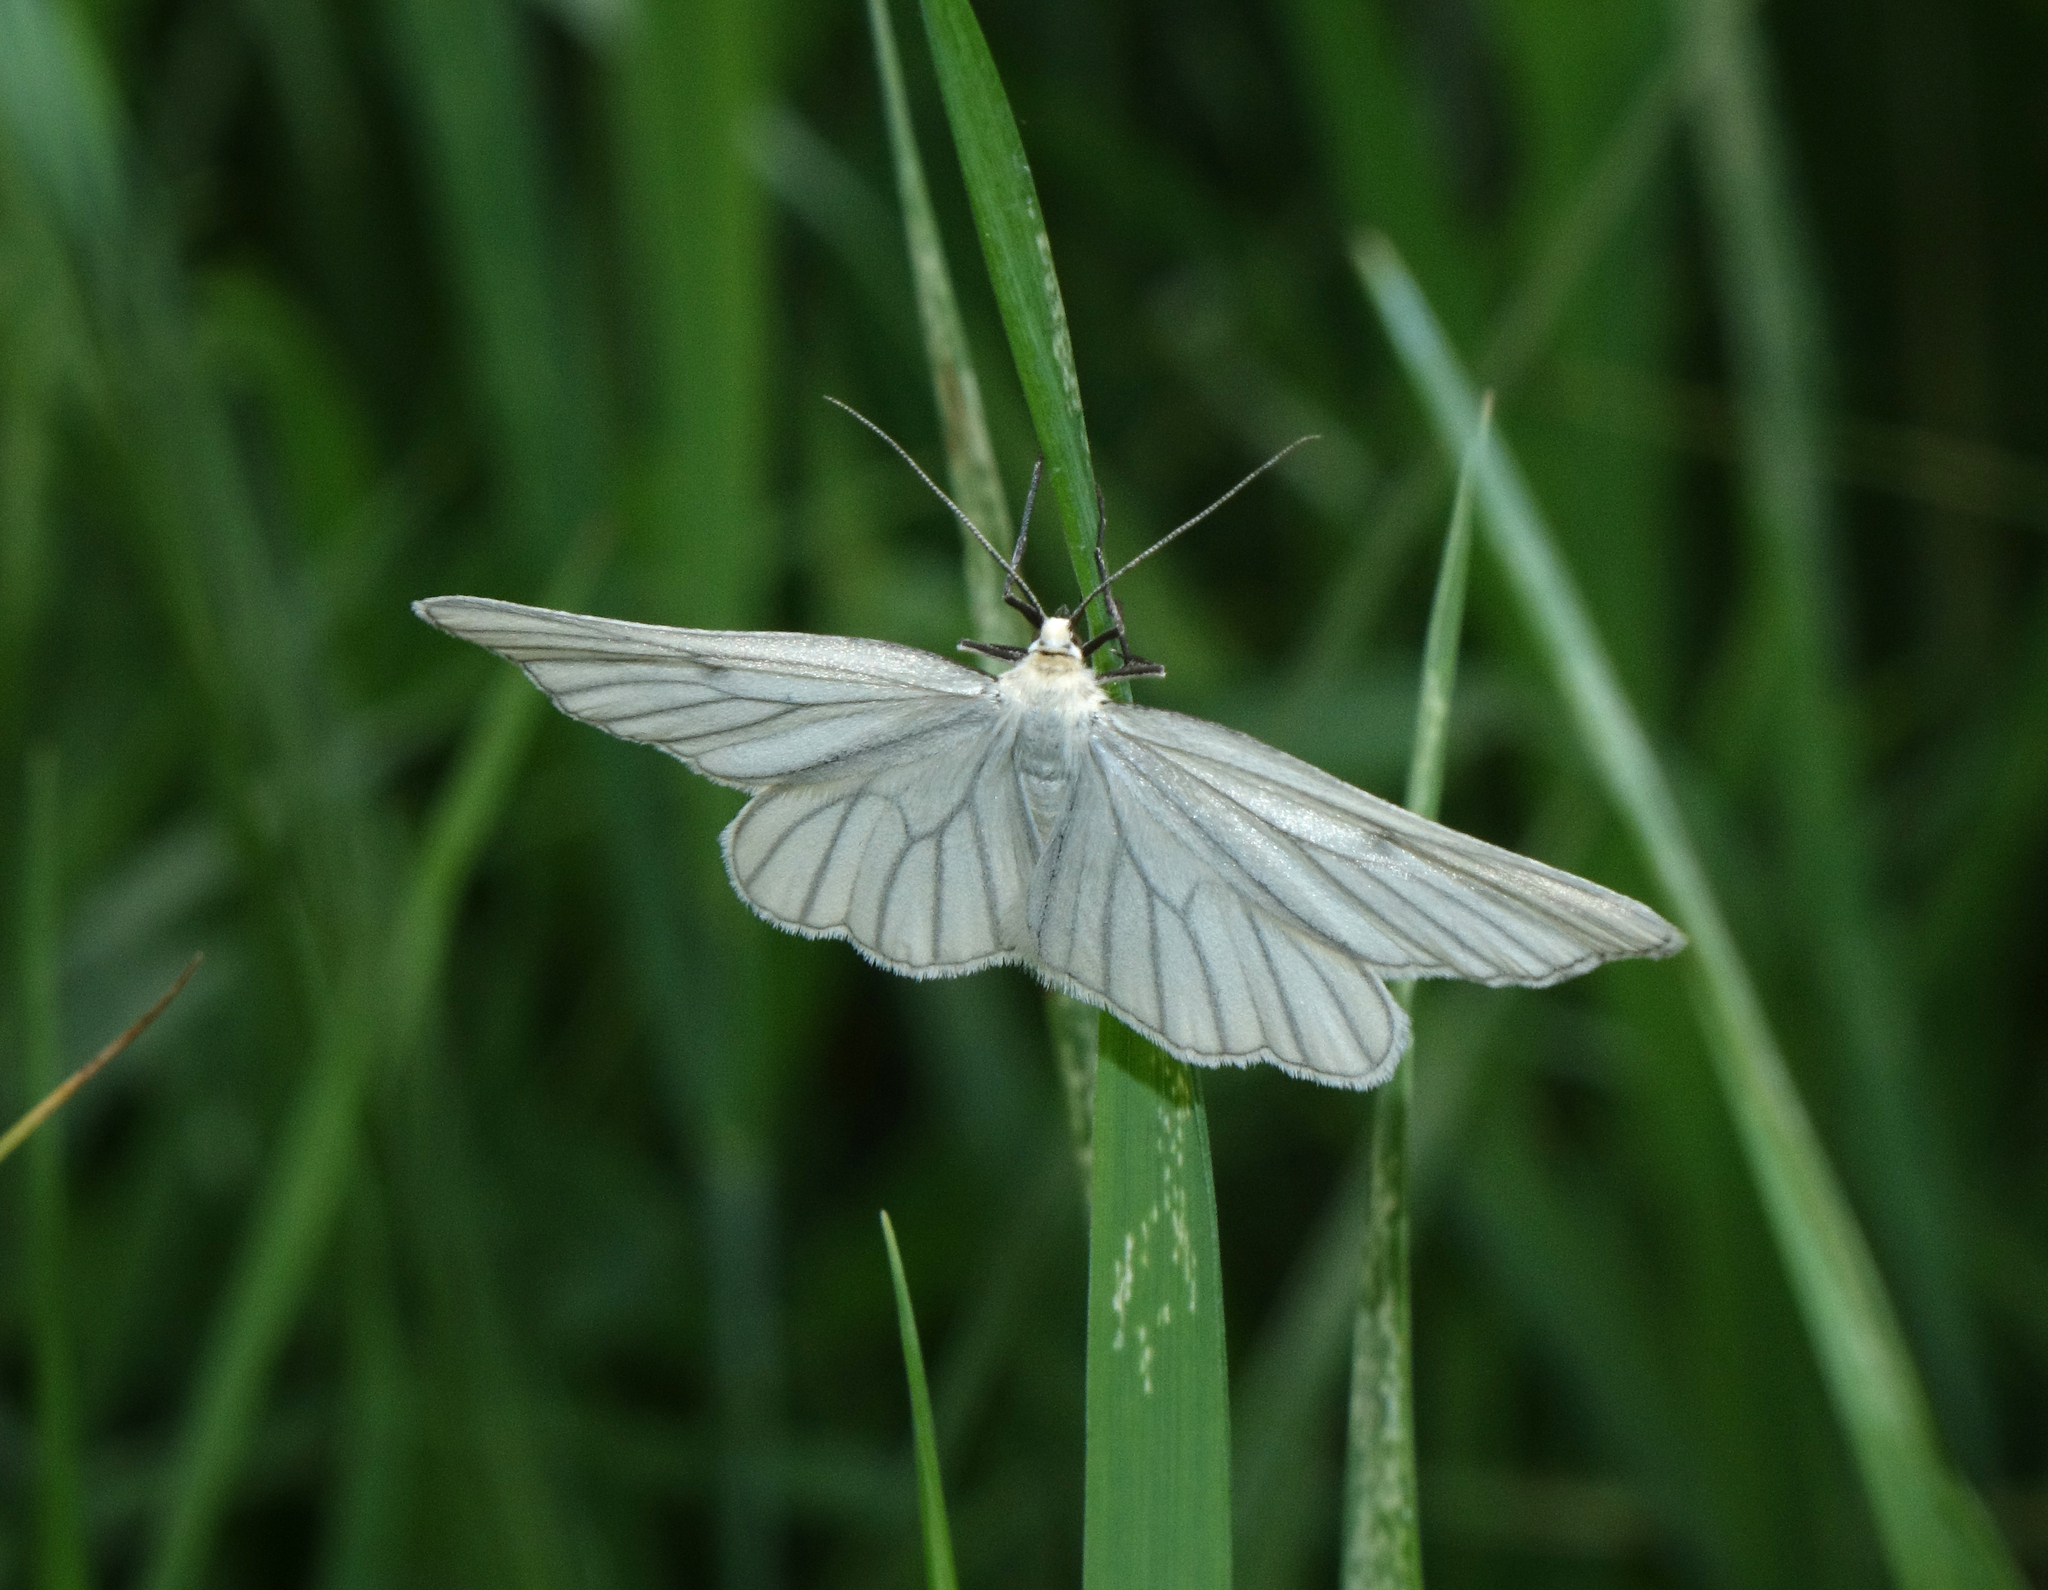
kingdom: Animalia
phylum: Arthropoda
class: Insecta
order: Lepidoptera
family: Geometridae
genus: Siona
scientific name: Siona lineata
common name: Black-veined moth
